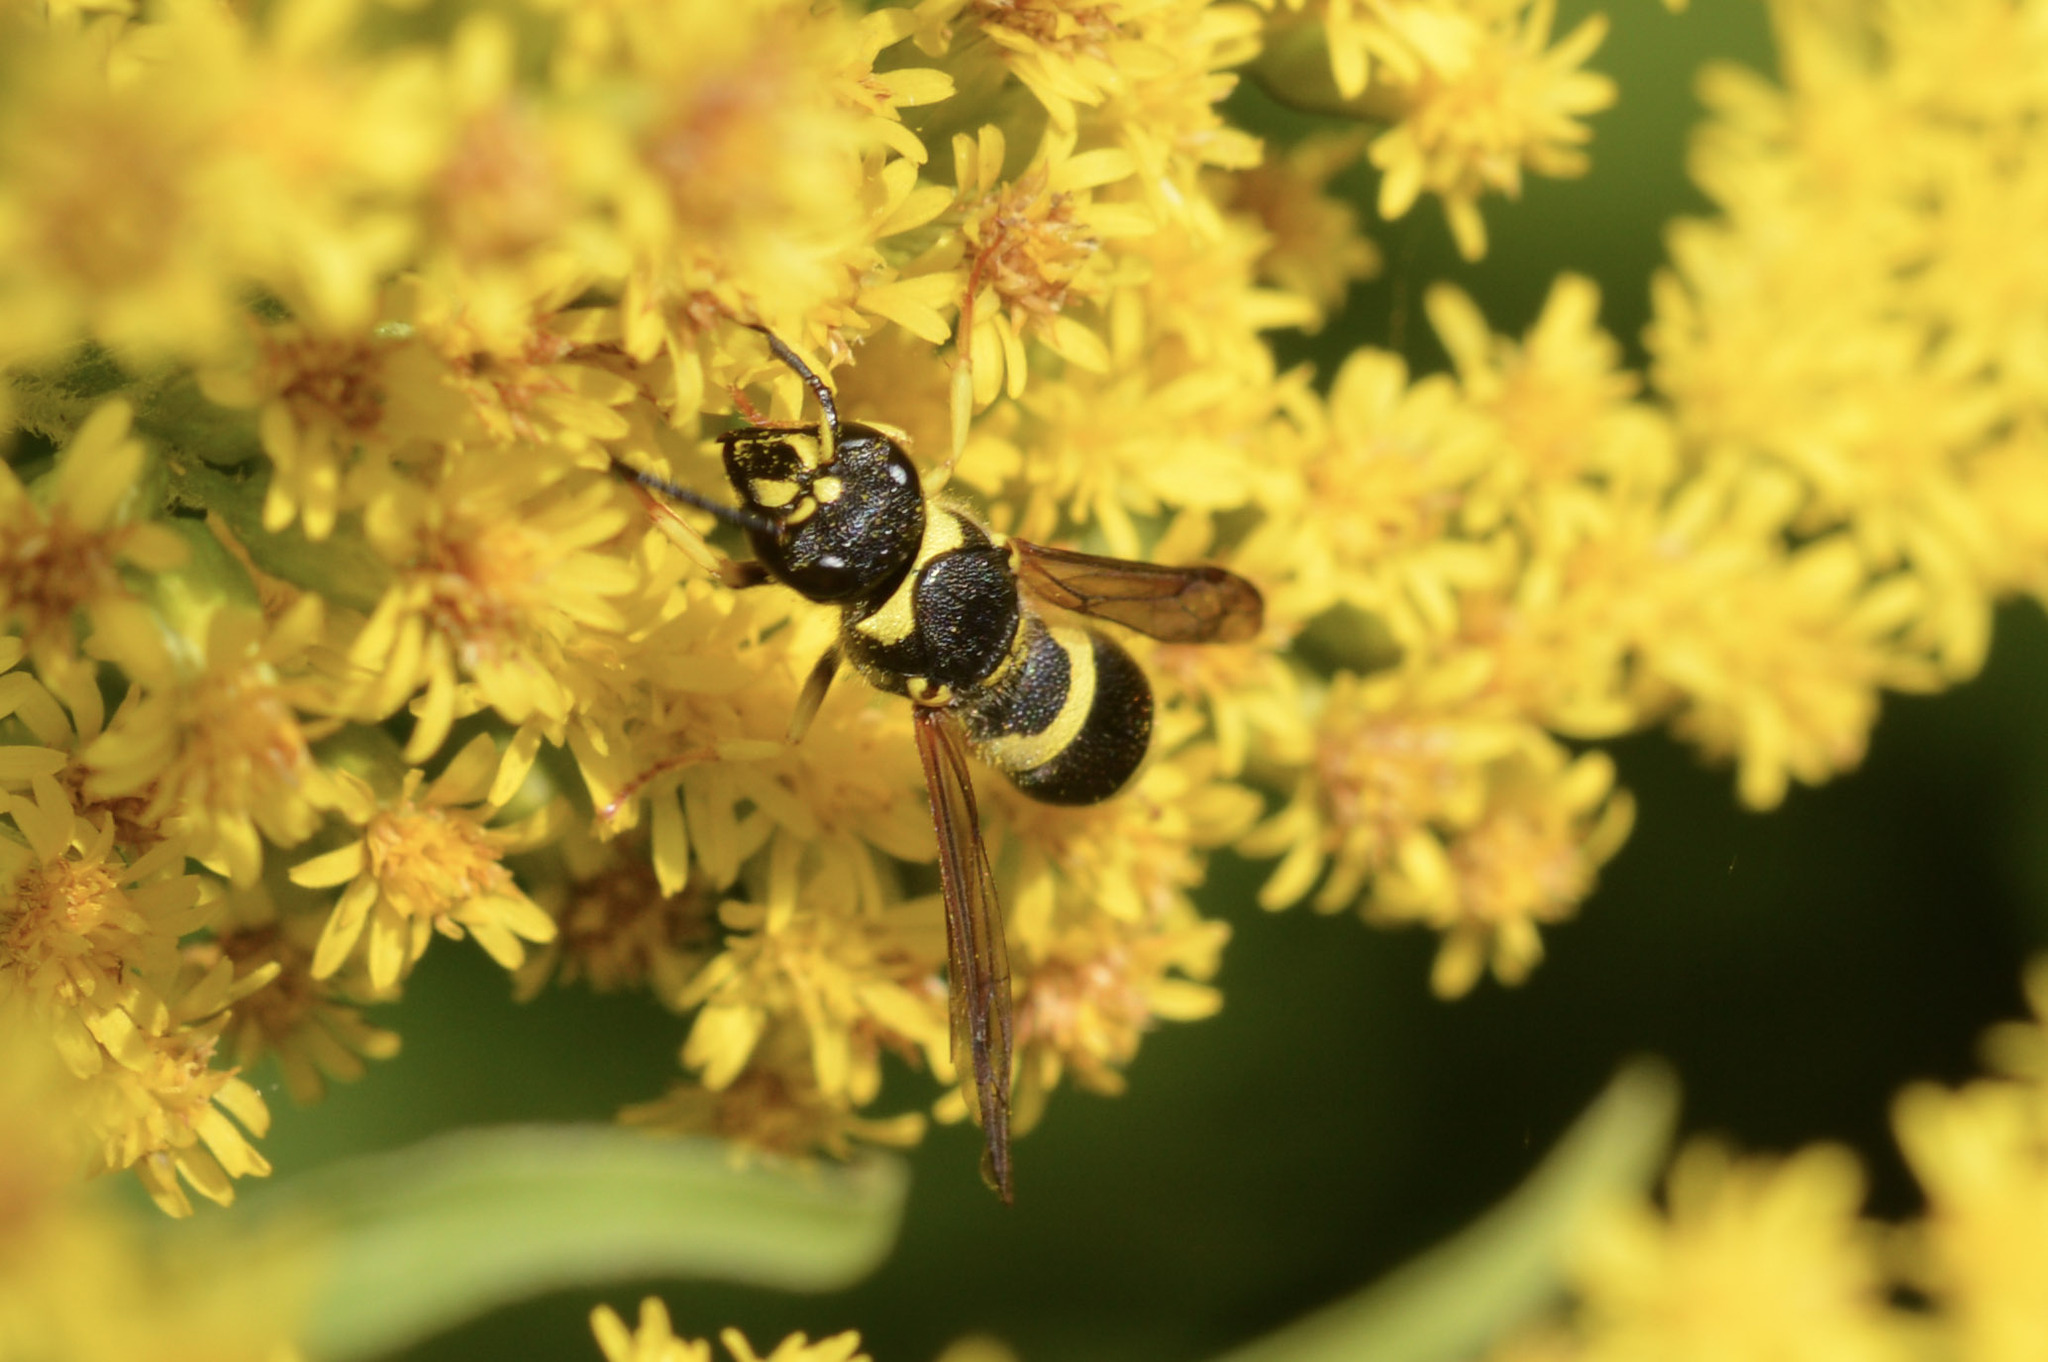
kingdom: Animalia
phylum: Arthropoda
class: Insecta
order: Hymenoptera
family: Vespidae
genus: Ancistrocerus
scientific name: Ancistrocerus gazella
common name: European tube wasp
